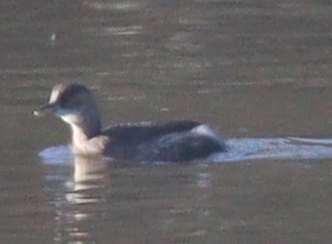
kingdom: Animalia
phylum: Chordata
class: Aves
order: Podicipediformes
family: Podicipedidae
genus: Tachybaptus
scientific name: Tachybaptus ruficollis
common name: Little grebe
